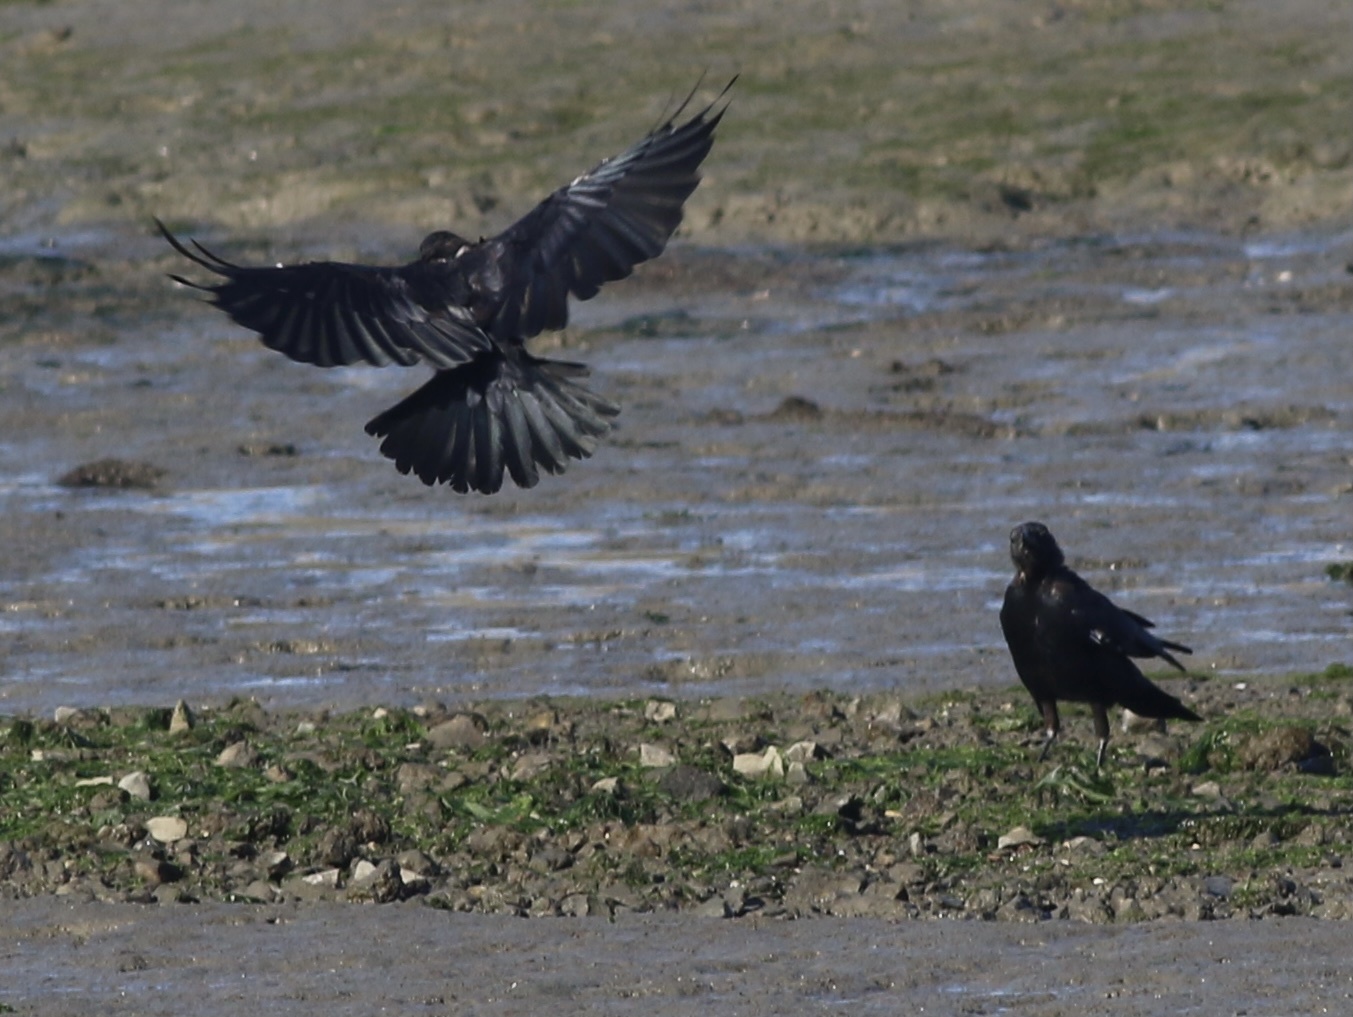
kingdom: Animalia
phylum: Chordata
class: Aves
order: Passeriformes
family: Corvidae
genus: Corvus
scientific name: Corvus brachyrhynchos
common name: American crow
